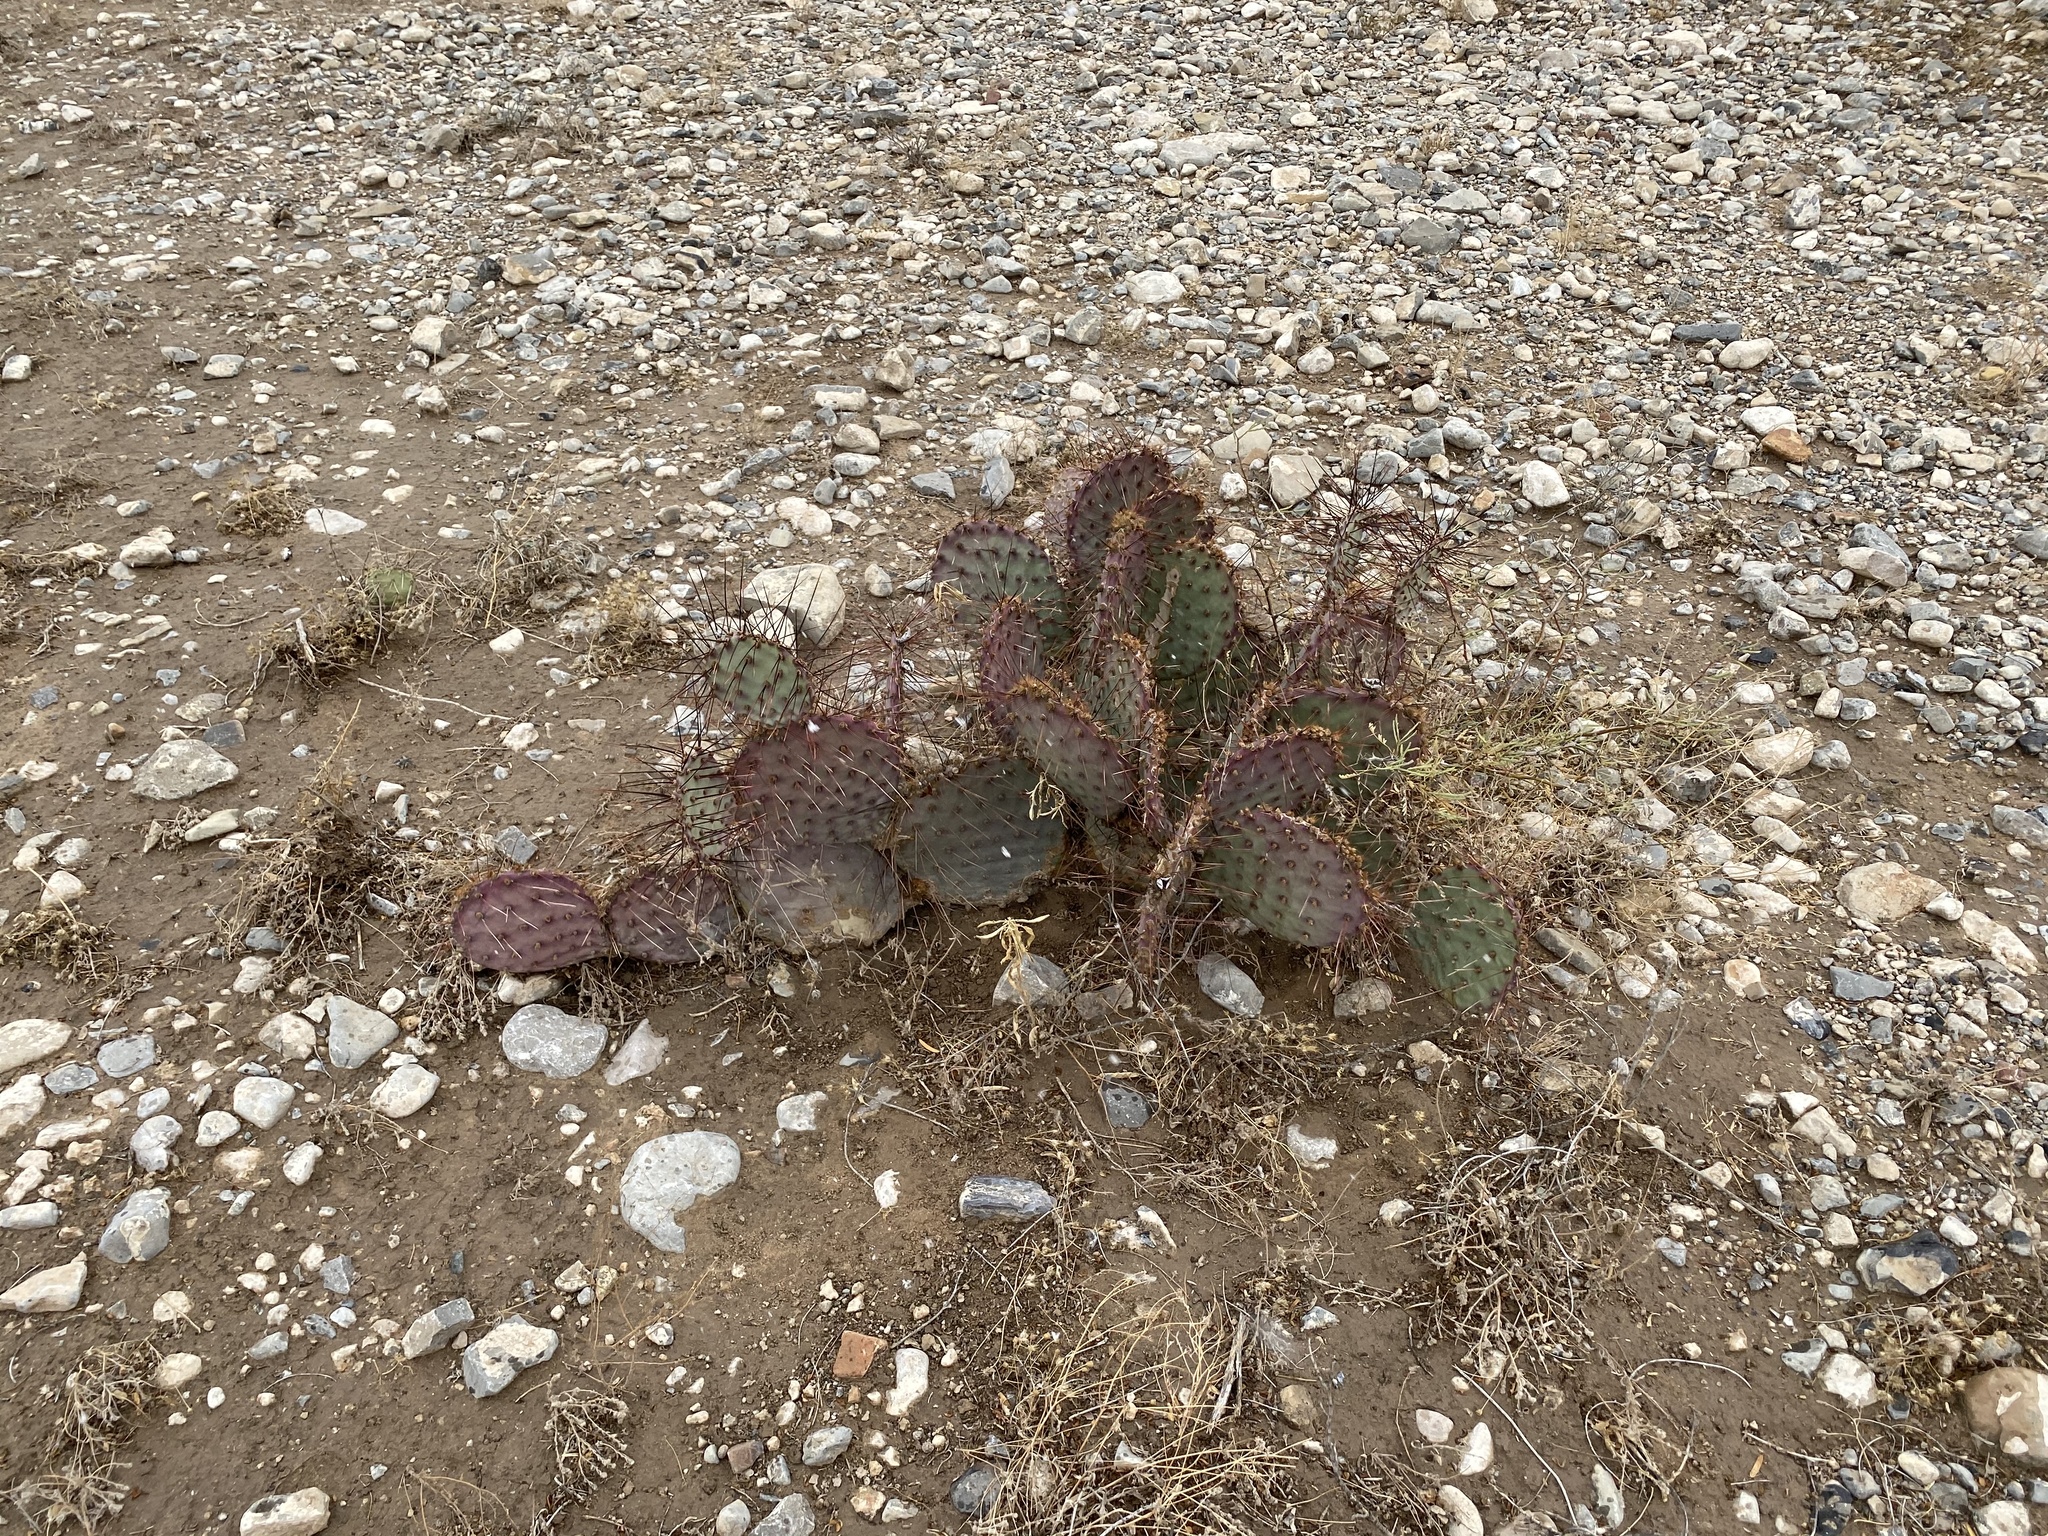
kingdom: Plantae
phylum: Tracheophyta
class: Magnoliopsida
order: Caryophyllales
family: Cactaceae
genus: Opuntia
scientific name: Opuntia macrocentra
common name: Purple prickly-pear
